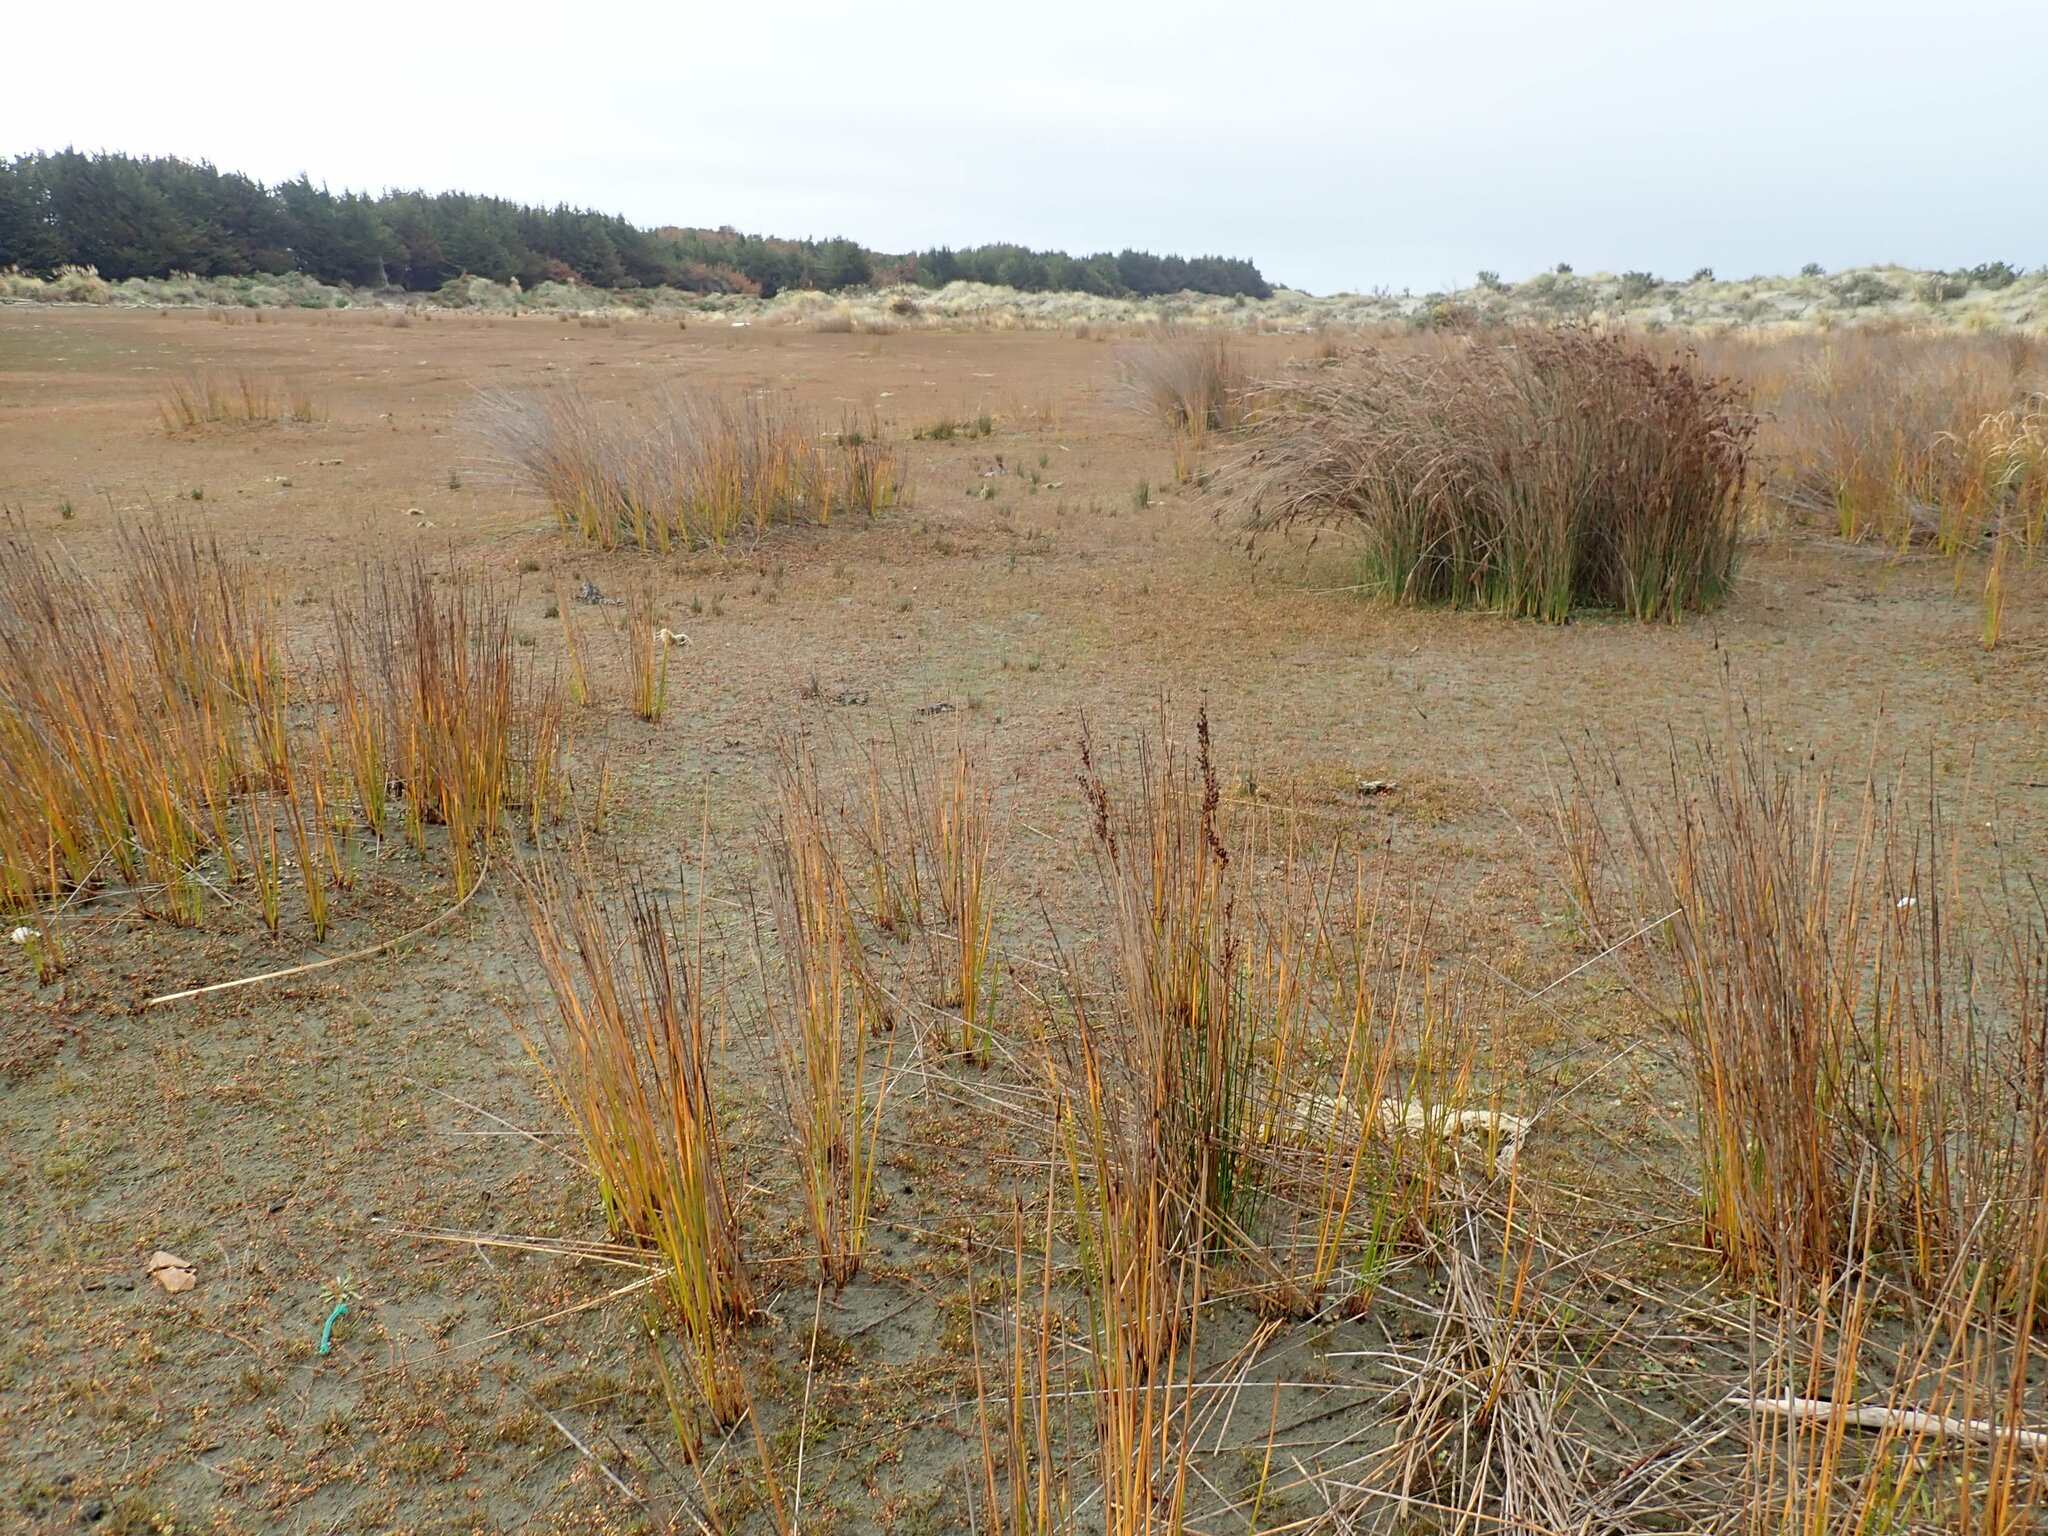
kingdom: Plantae
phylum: Tracheophyta
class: Liliopsida
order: Poales
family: Juncaceae
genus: Juncus
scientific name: Juncus kraussii
